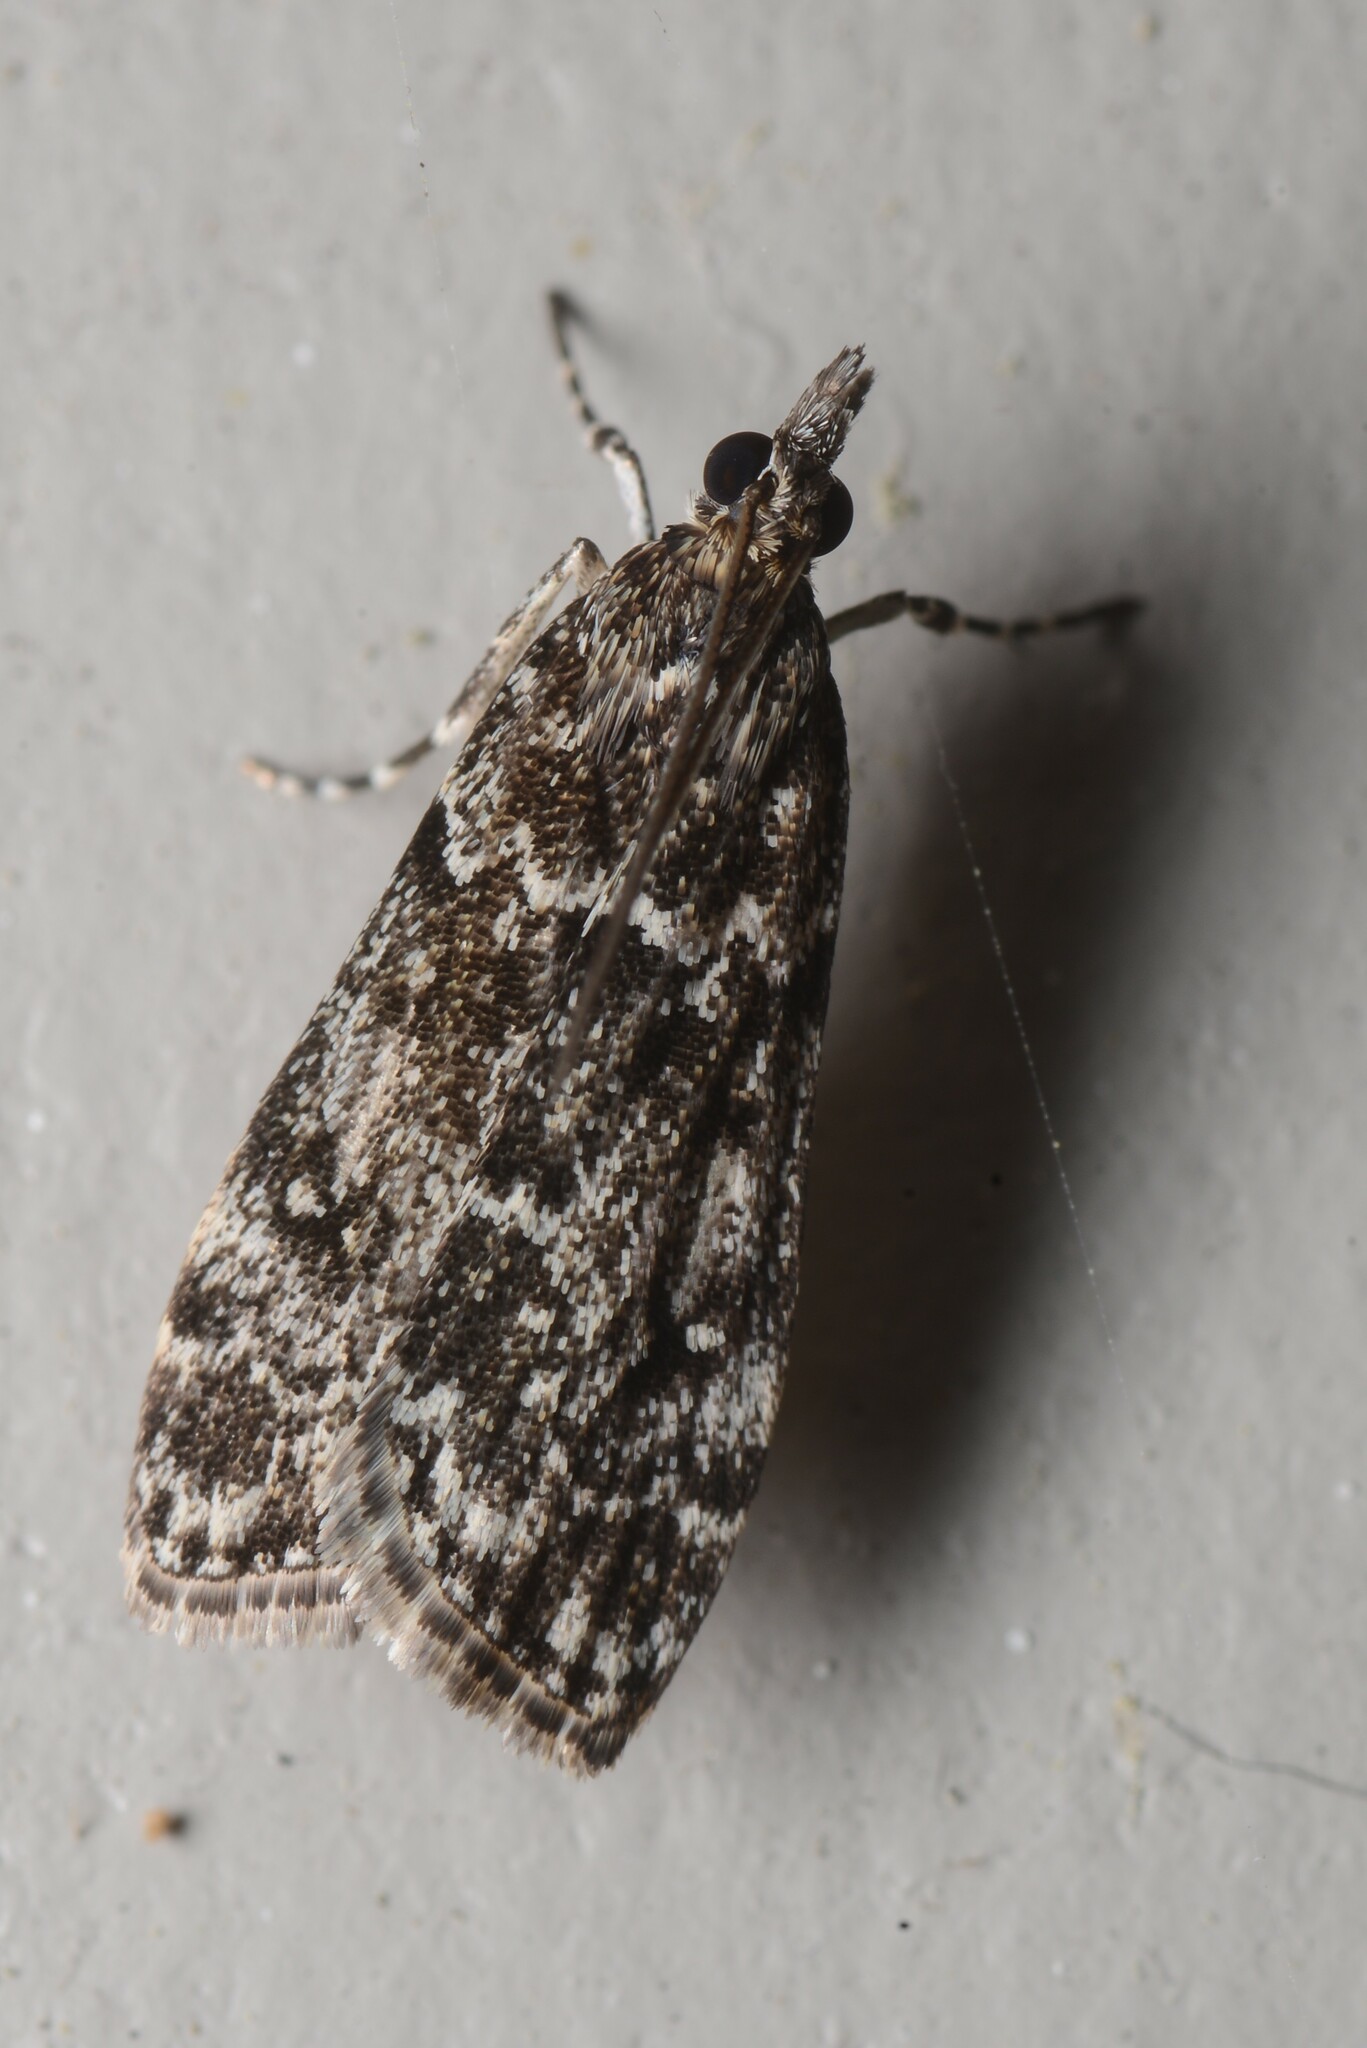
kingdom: Animalia
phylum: Arthropoda
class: Insecta
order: Lepidoptera
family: Crambidae
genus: Eudonia
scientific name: Eudonia philerga
